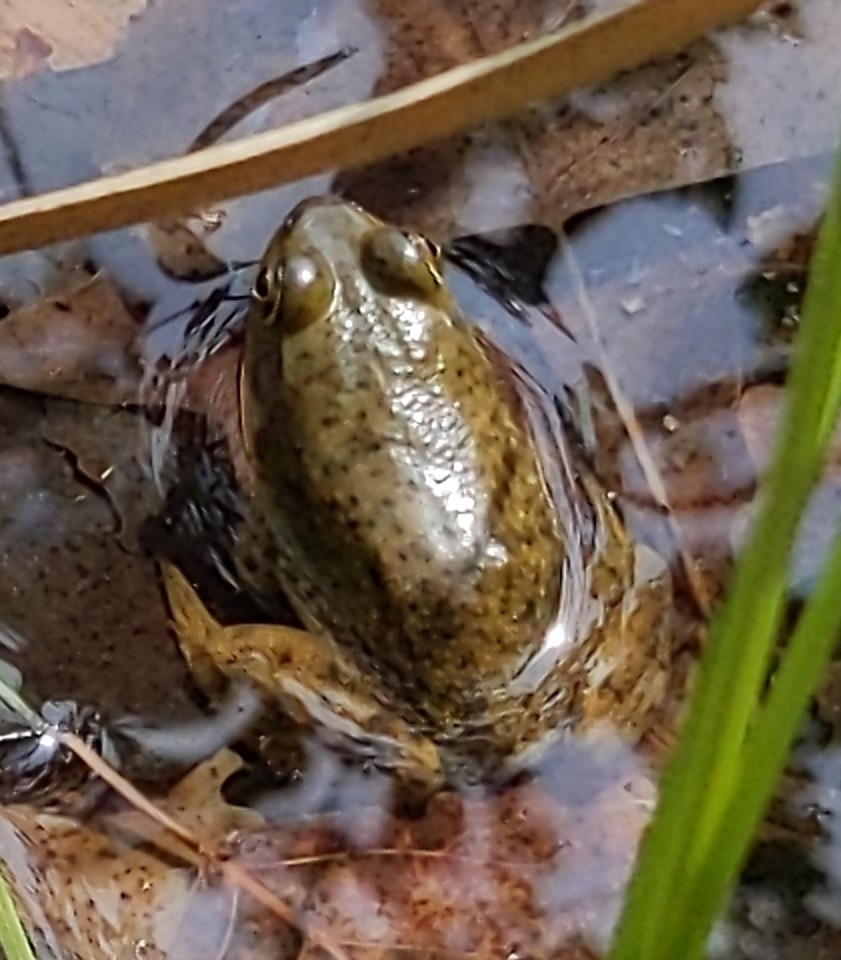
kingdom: Animalia
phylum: Chordata
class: Amphibia
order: Anura
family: Ranidae
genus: Lithobates
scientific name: Lithobates catesbeianus
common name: American bullfrog
